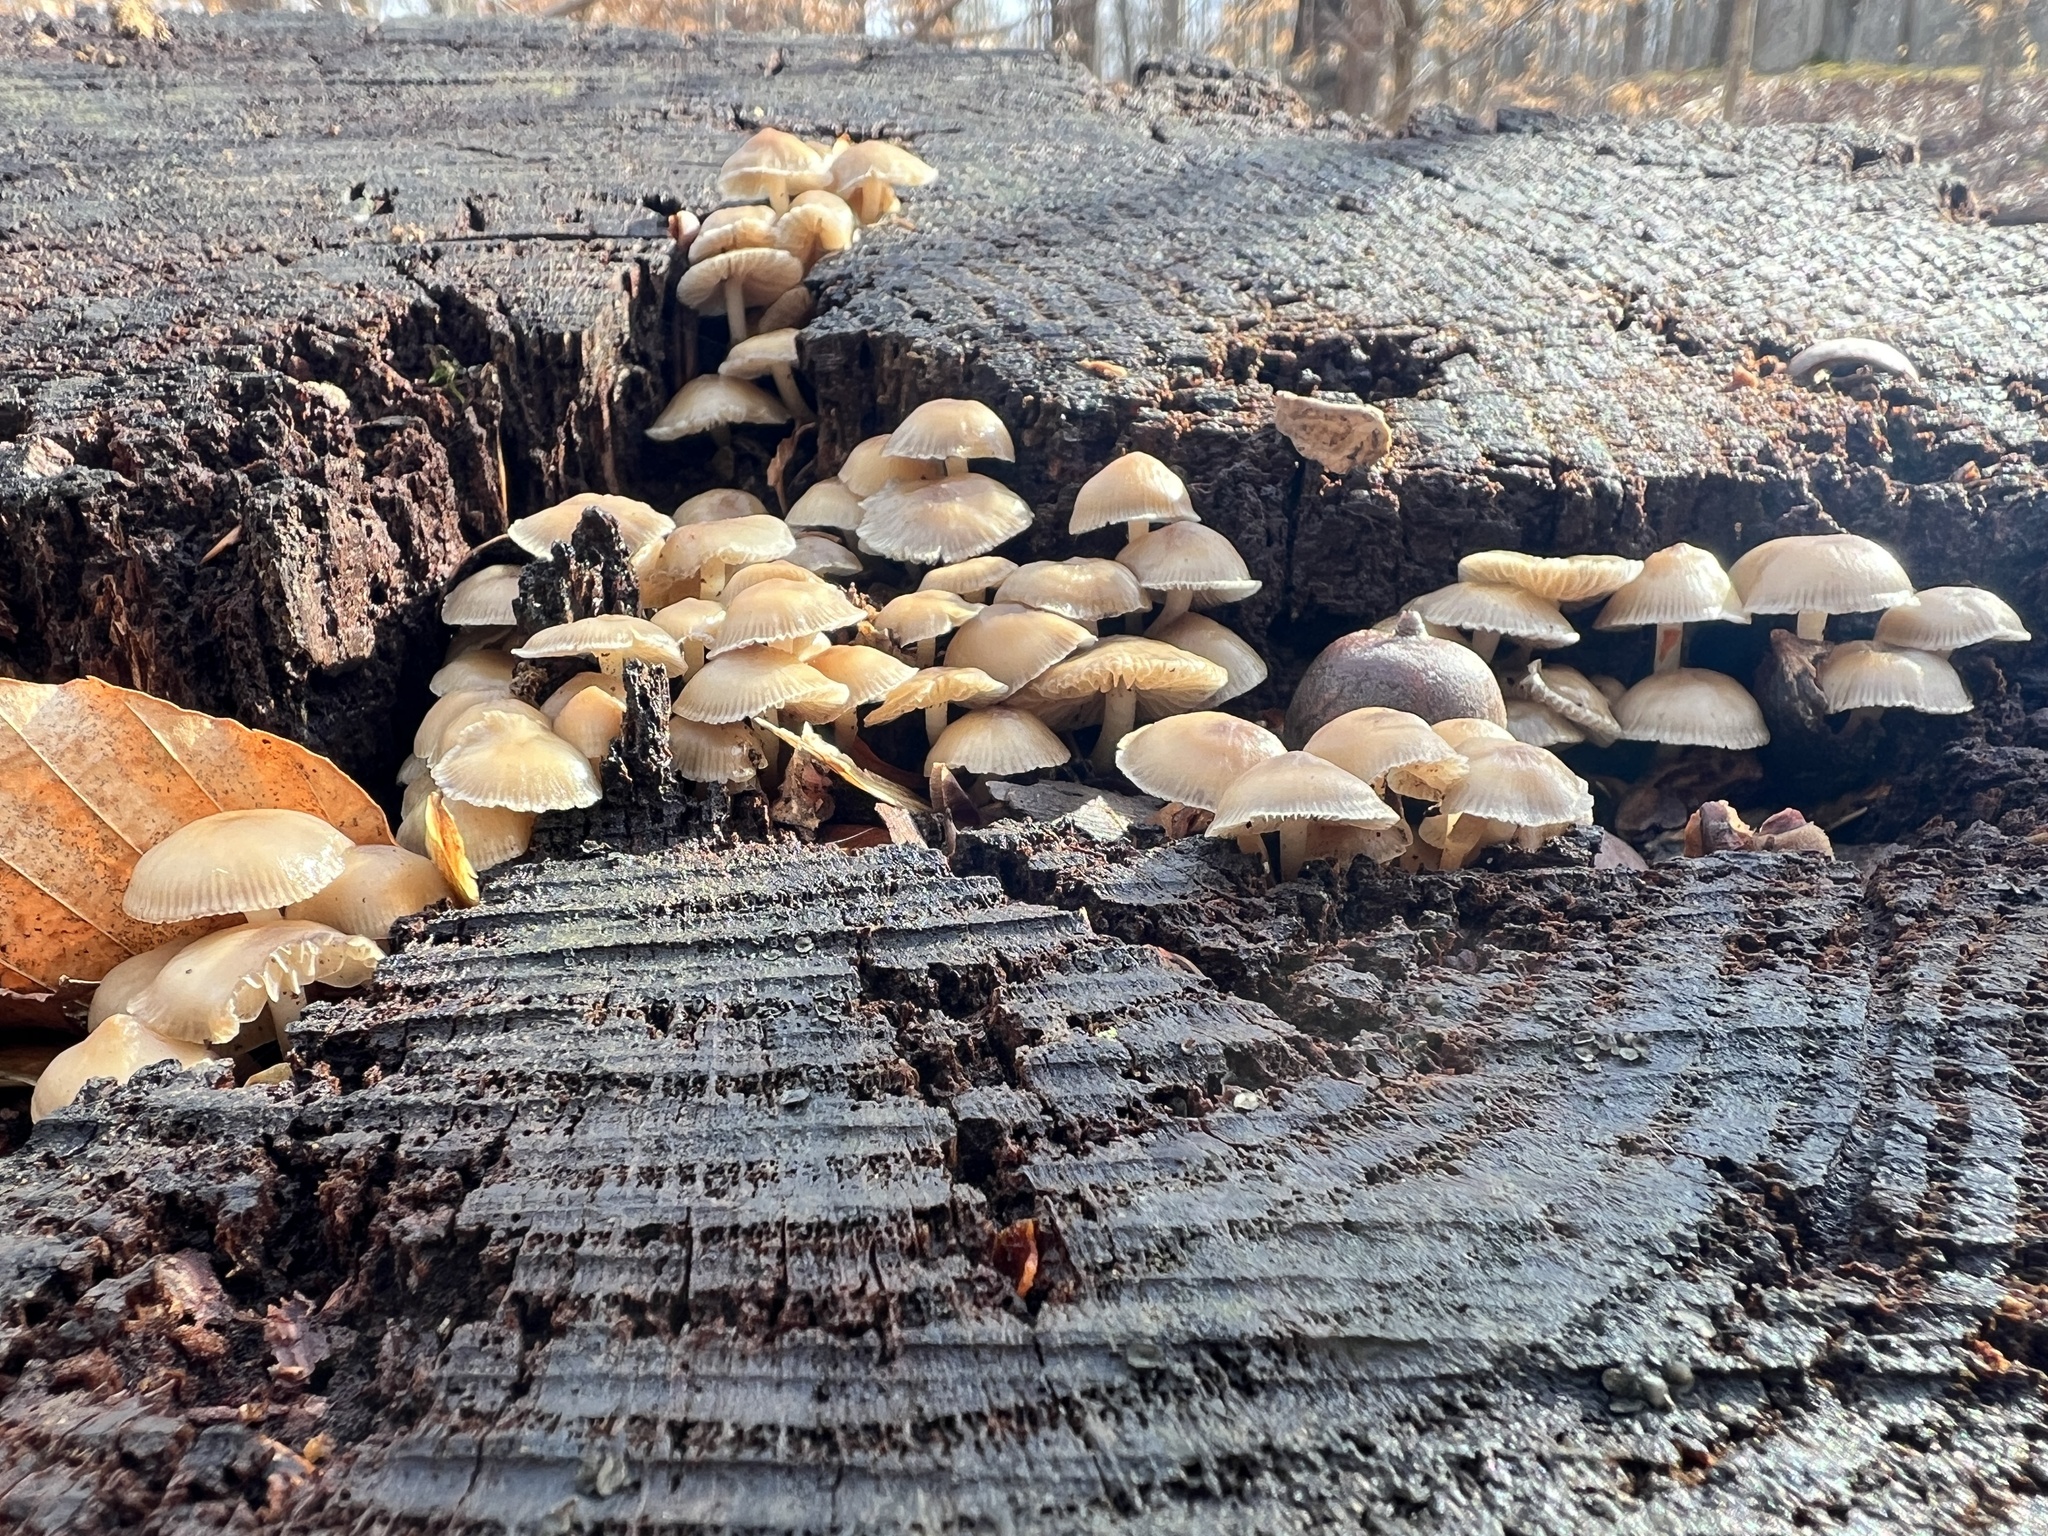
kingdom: Fungi
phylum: Basidiomycota
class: Agaricomycetes
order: Agaricales
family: Mycenaceae
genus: Mycena
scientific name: Mycena galericulata
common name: Bonnet mycena
